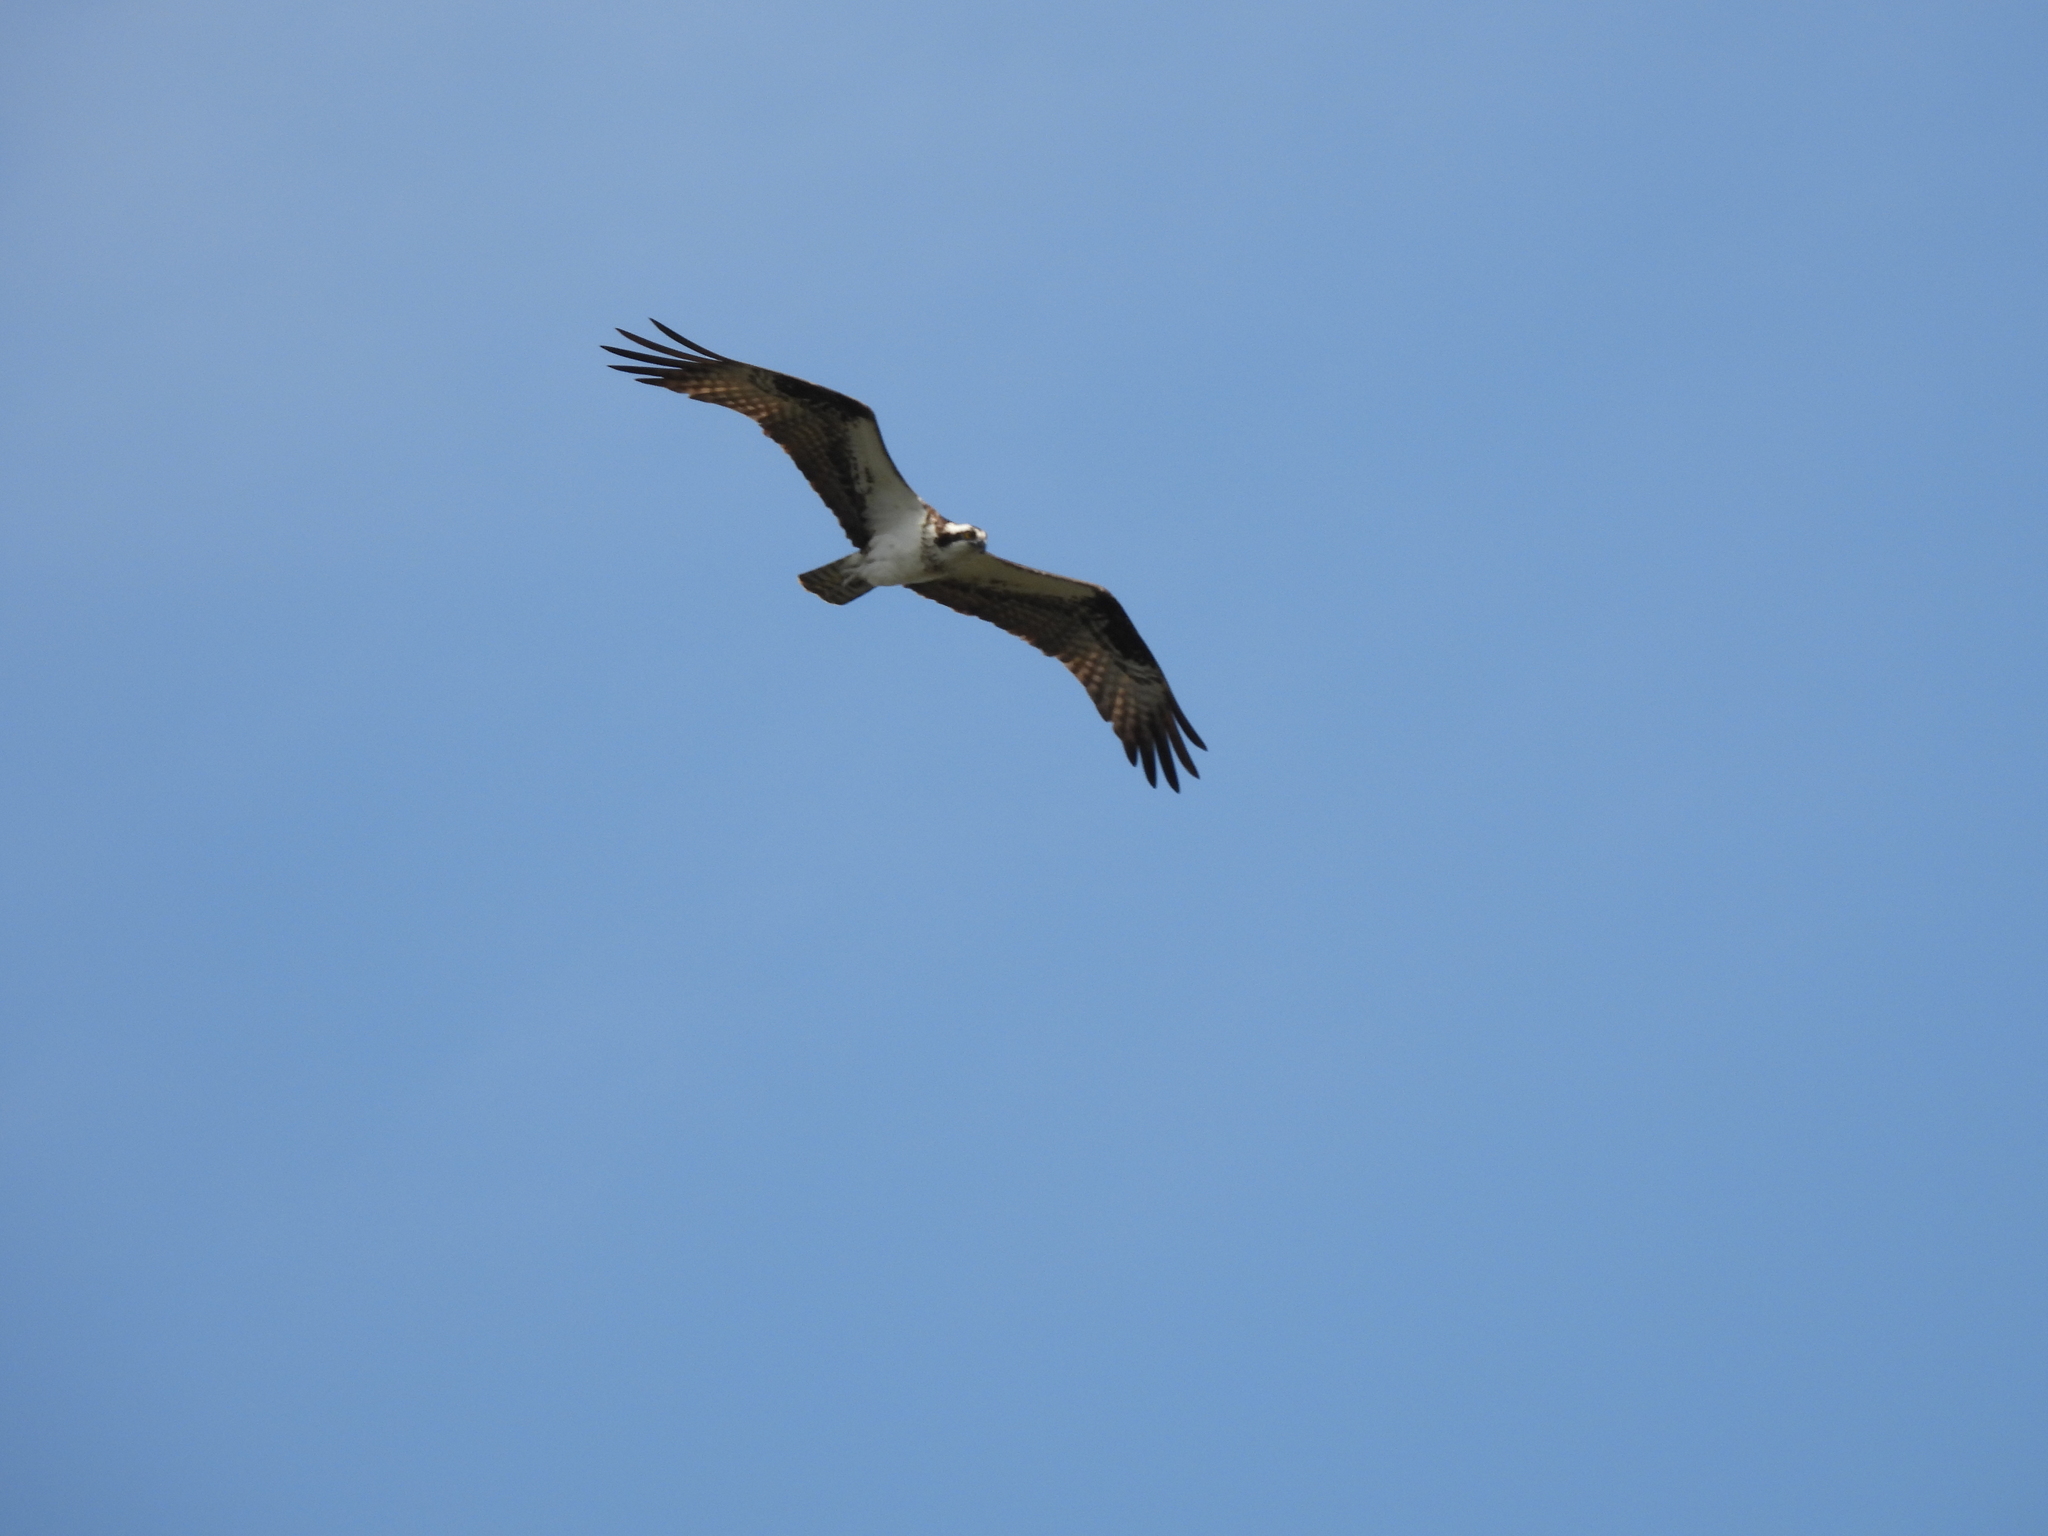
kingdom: Animalia
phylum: Chordata
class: Aves
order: Accipitriformes
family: Pandionidae
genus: Pandion
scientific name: Pandion haliaetus
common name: Osprey
